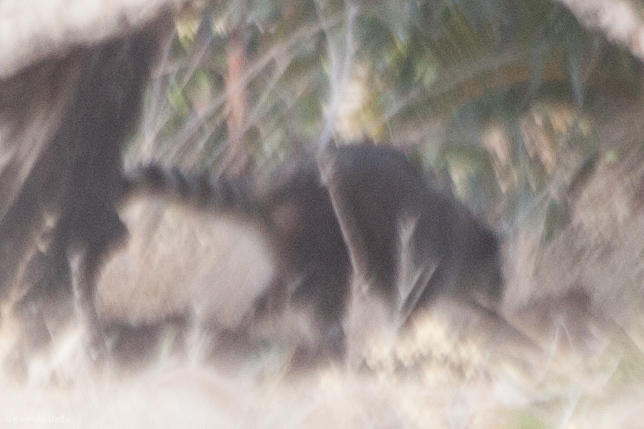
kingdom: Animalia
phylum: Chordata
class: Mammalia
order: Carnivora
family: Procyonidae
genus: Procyon
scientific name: Procyon lotor
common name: Raccoon
